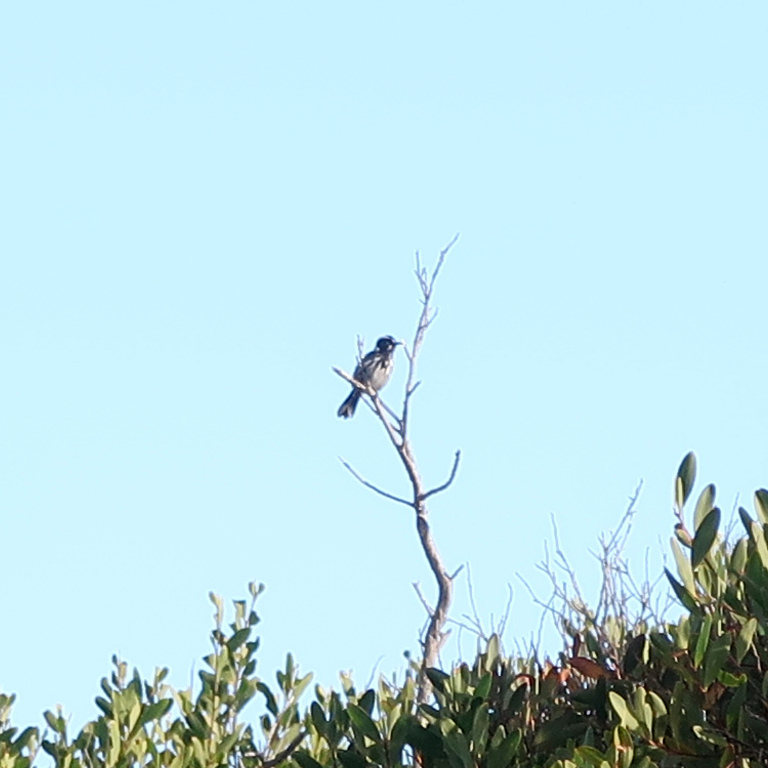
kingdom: Animalia
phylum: Chordata
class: Aves
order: Passeriformes
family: Meliphagidae
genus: Phylidonyris
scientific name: Phylidonyris novaehollandiae
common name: New holland honeyeater
